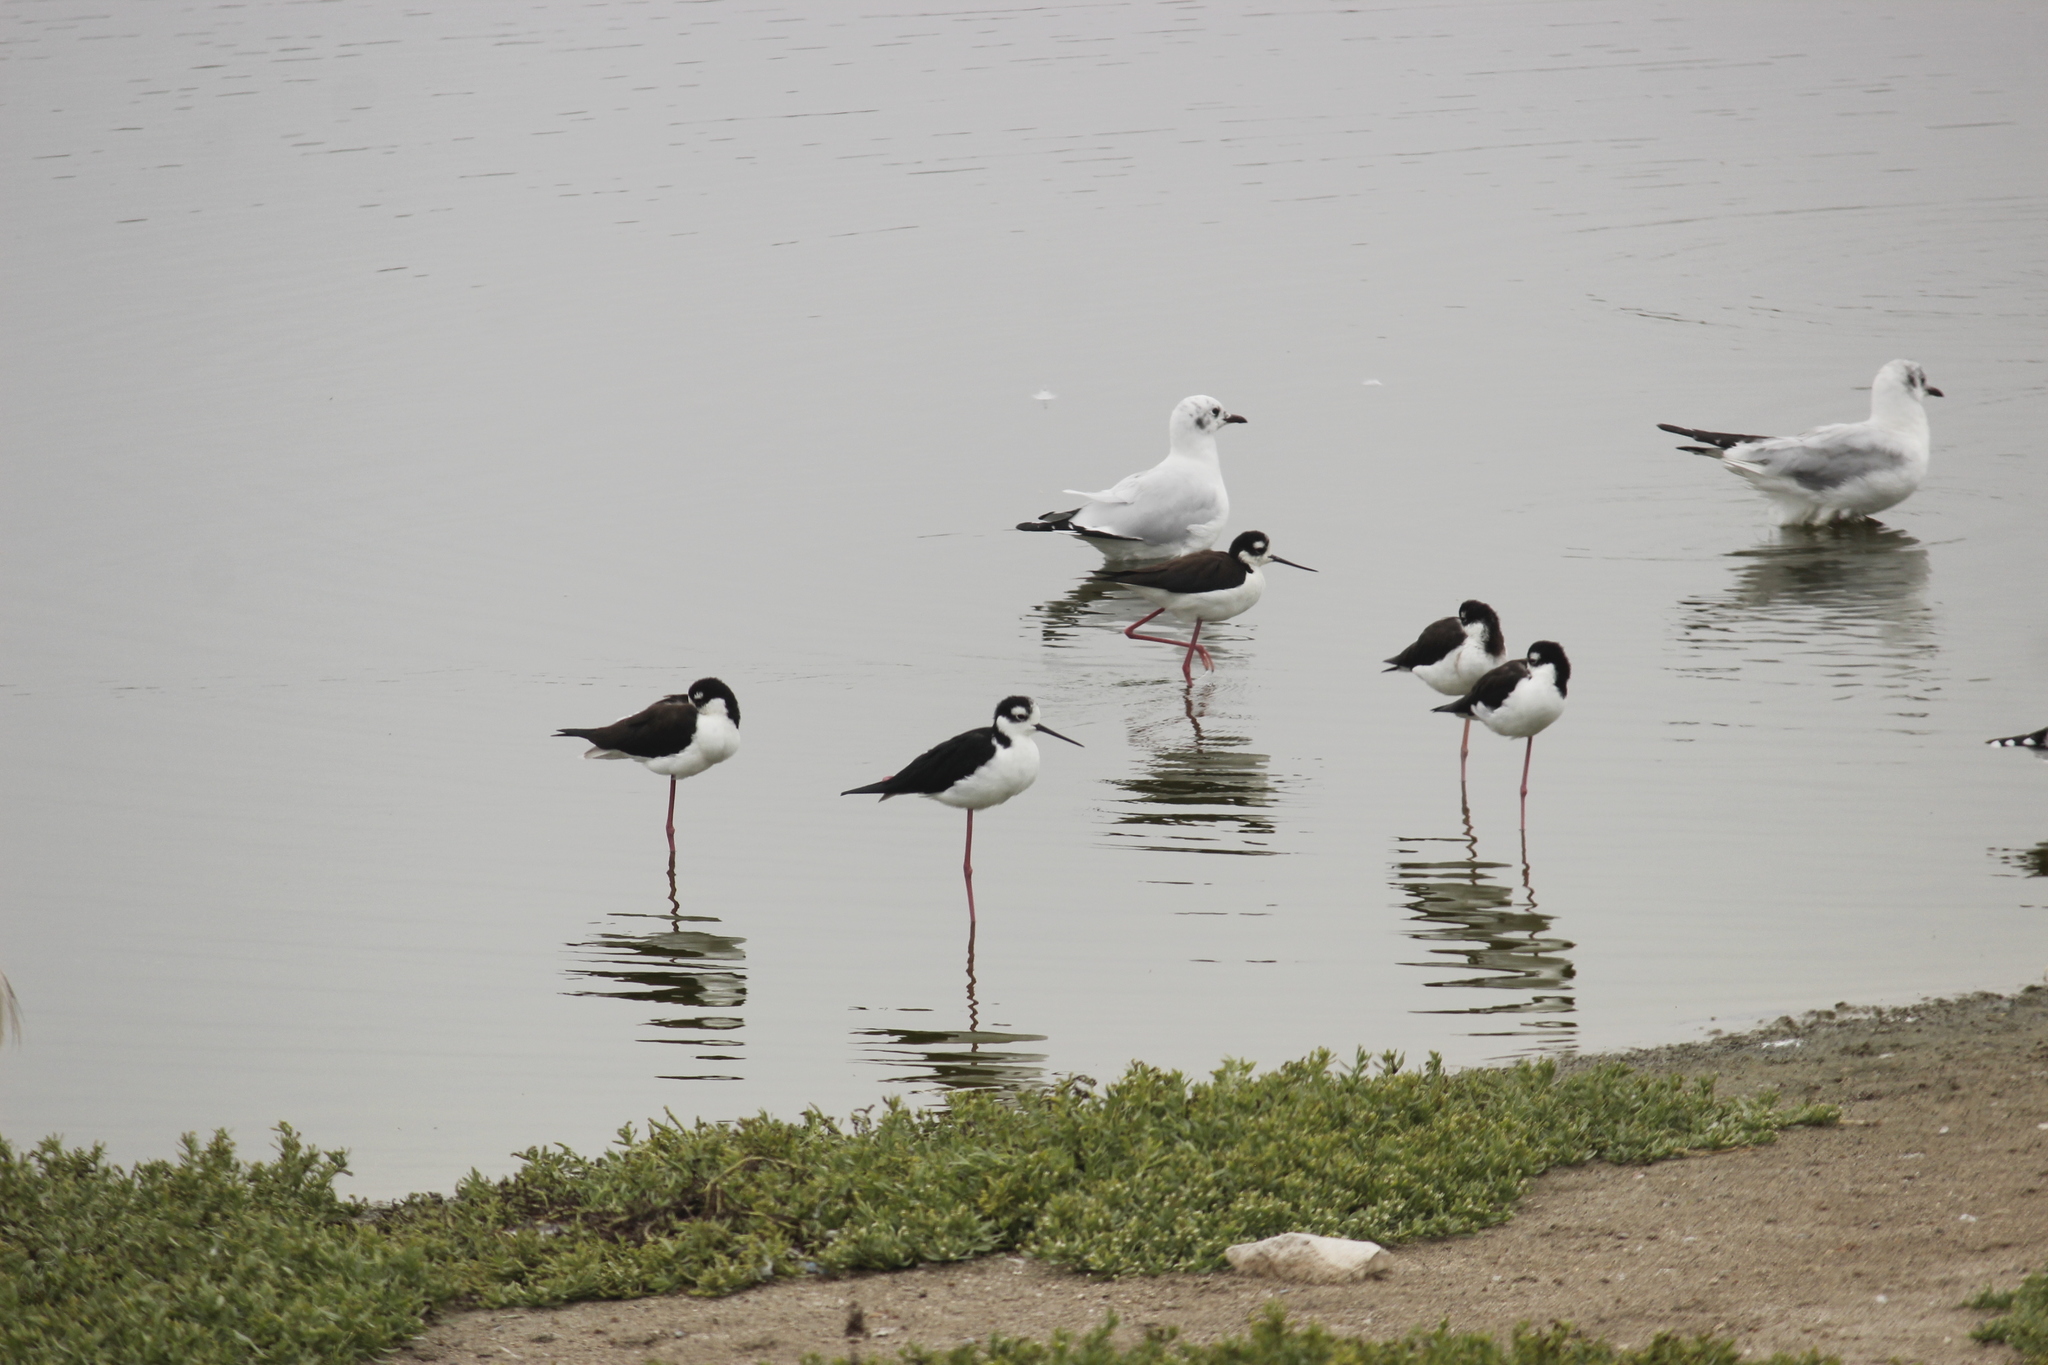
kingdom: Animalia
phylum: Chordata
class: Aves
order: Charadriiformes
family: Recurvirostridae
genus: Himantopus
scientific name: Himantopus mexicanus
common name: Black-necked stilt
